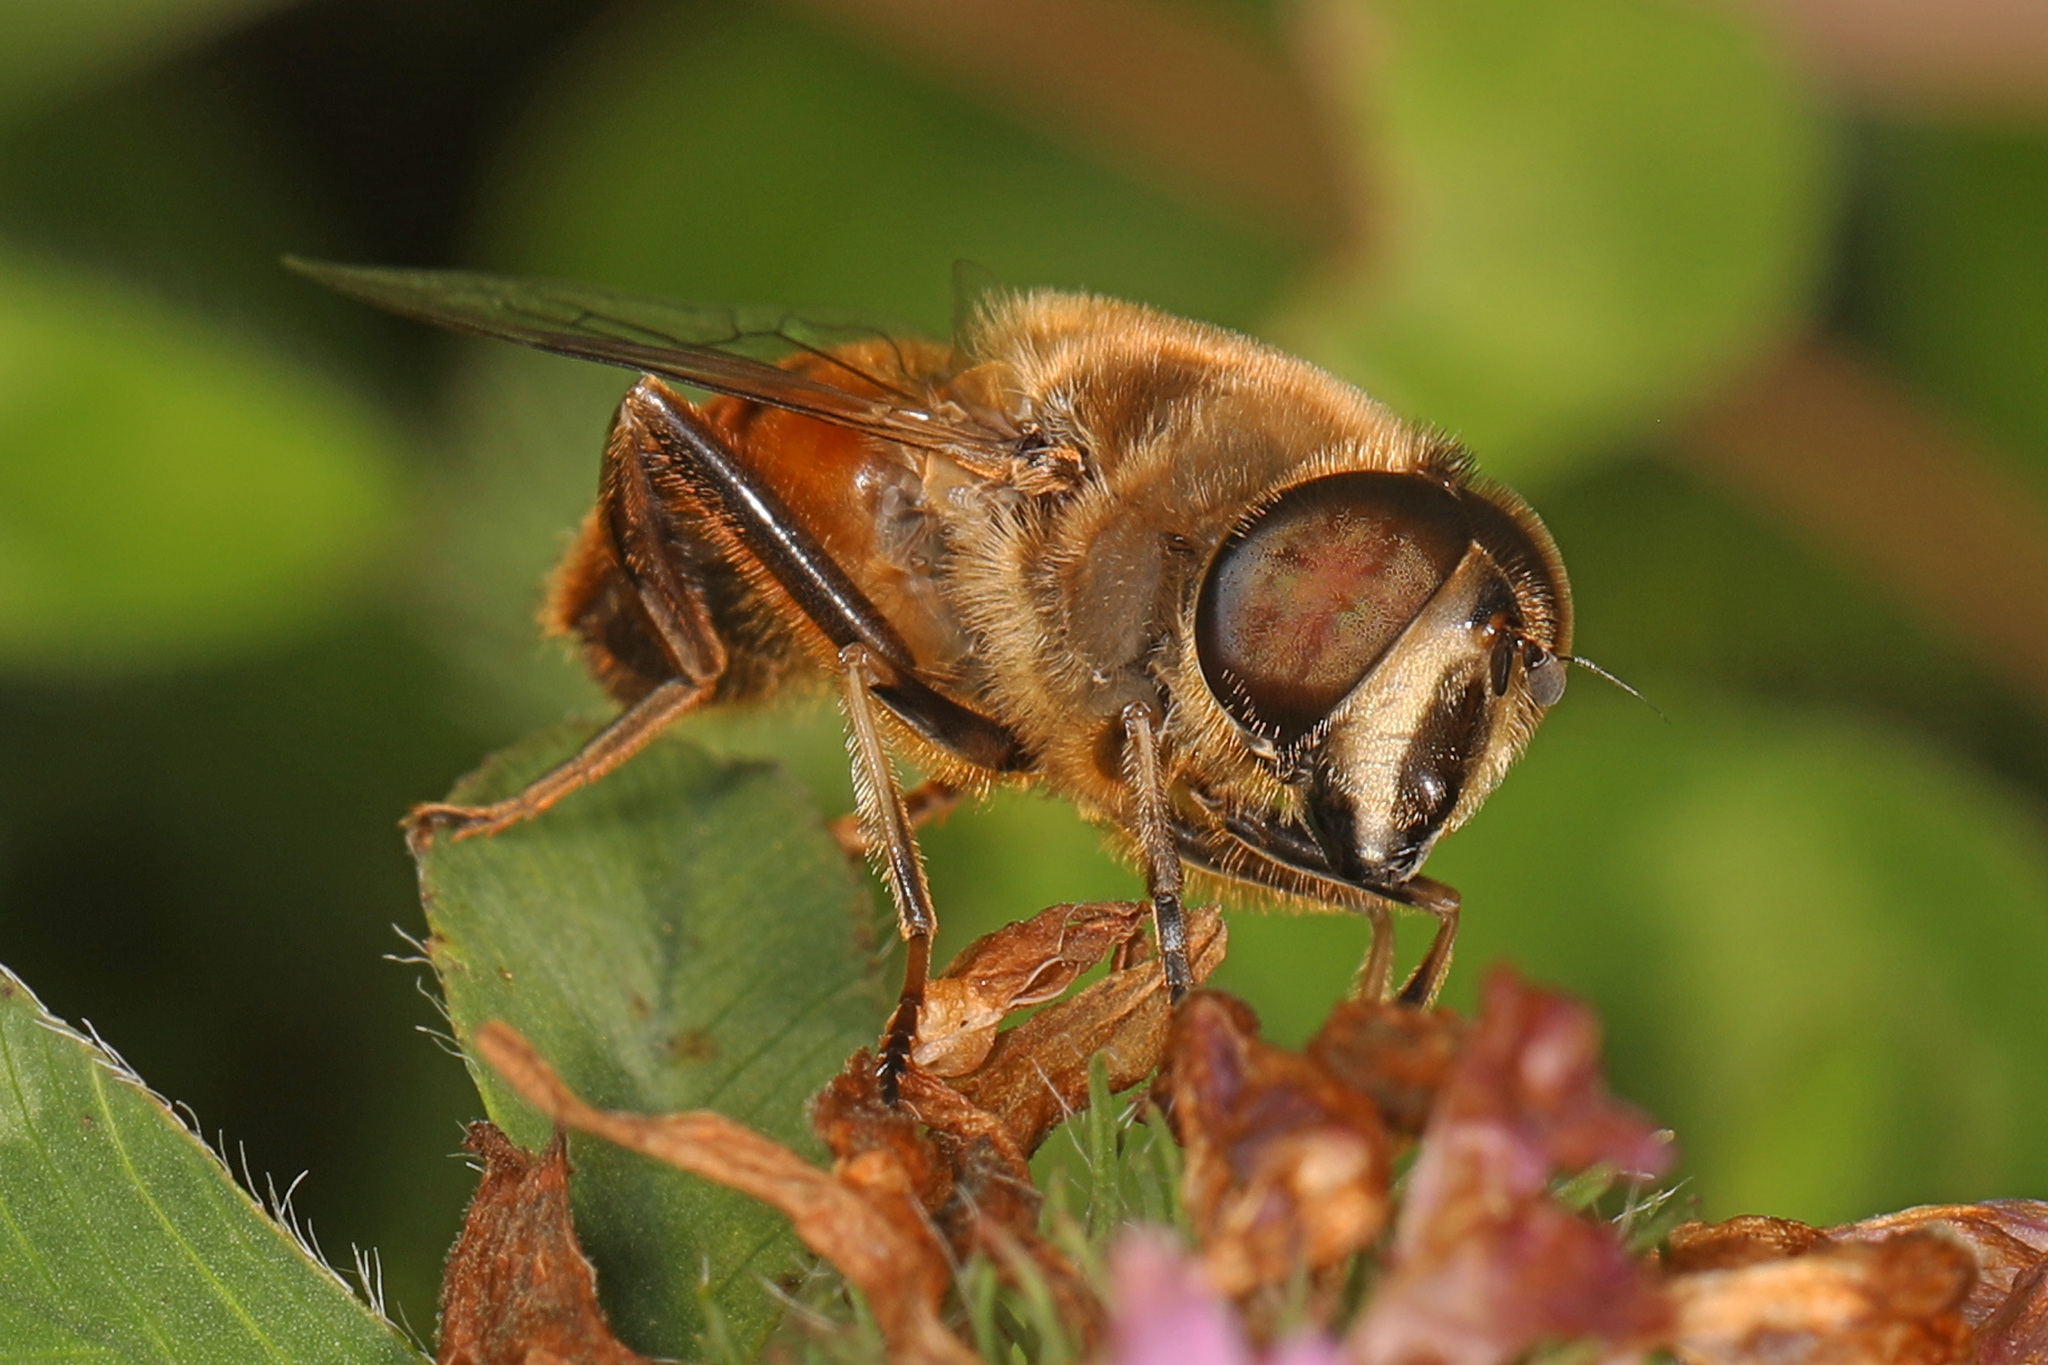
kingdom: Animalia
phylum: Arthropoda
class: Insecta
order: Diptera
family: Syrphidae
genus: Eristalis
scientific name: Eristalis tenax
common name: Drone fly
